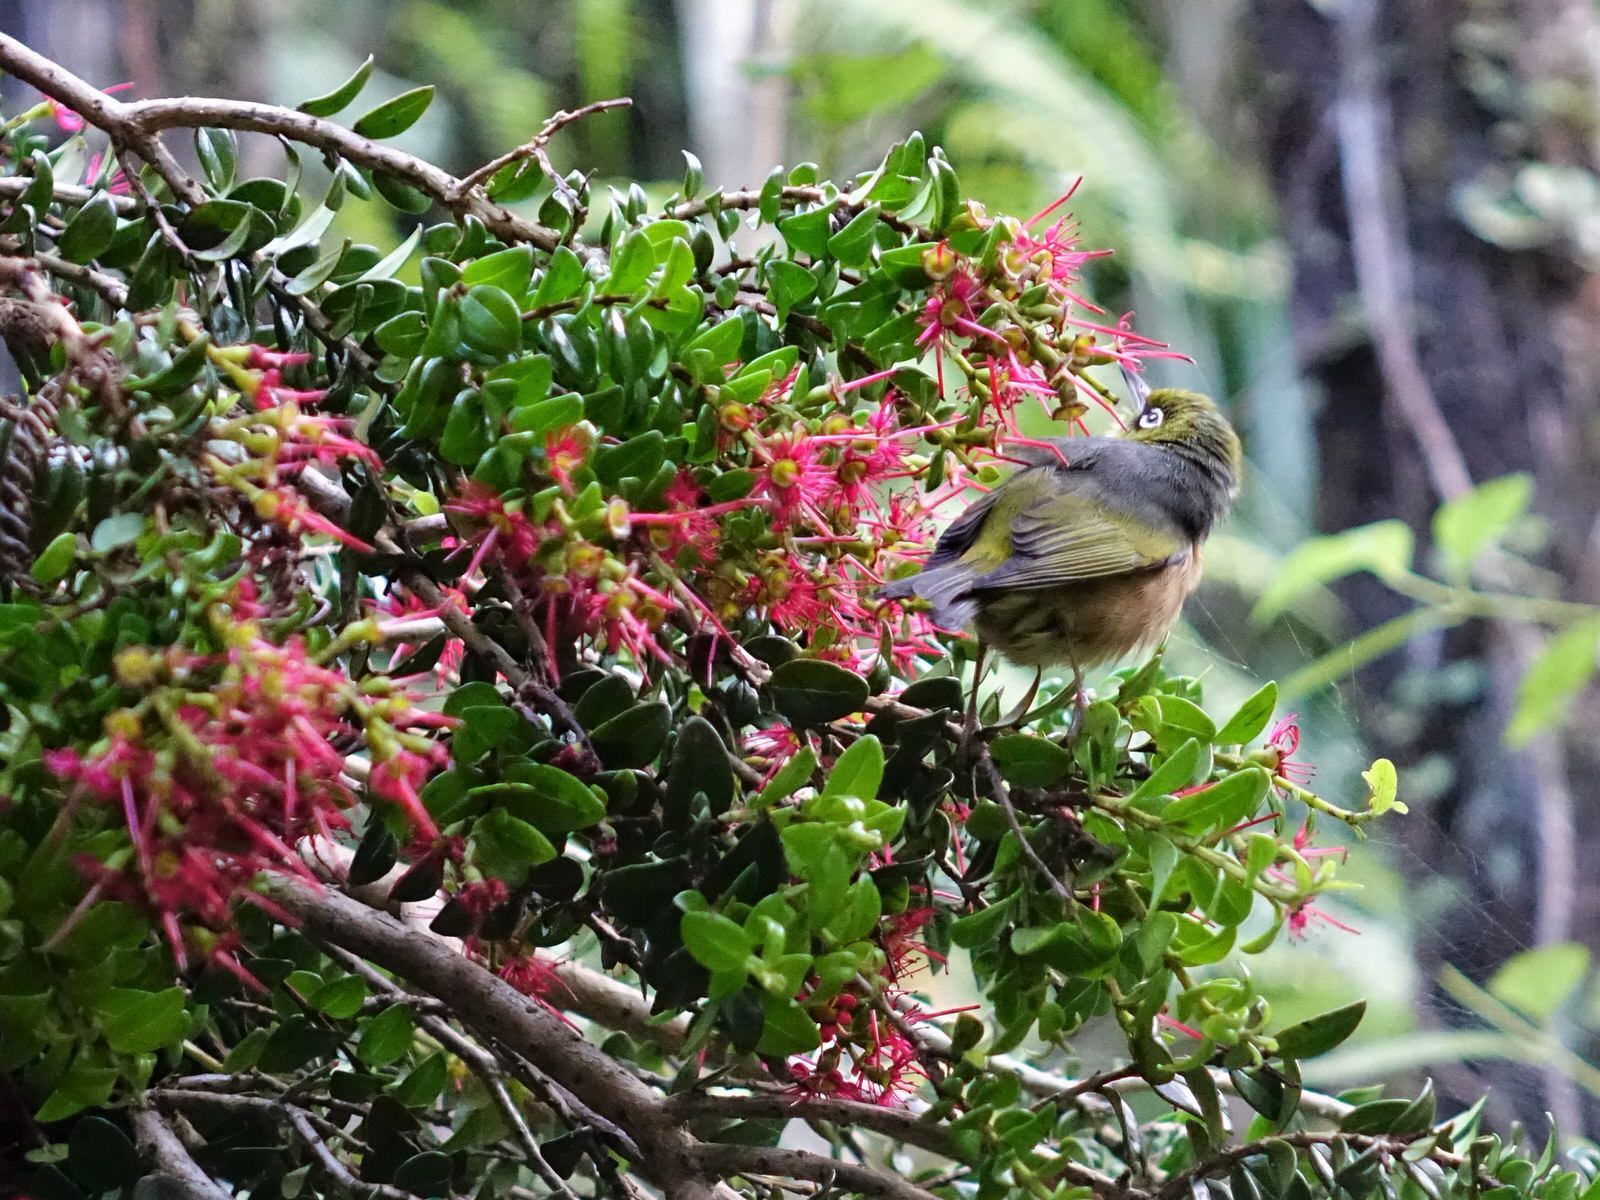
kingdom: Animalia
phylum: Chordata
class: Aves
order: Passeriformes
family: Zosteropidae
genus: Zosterops
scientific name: Zosterops lateralis
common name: Silvereye
